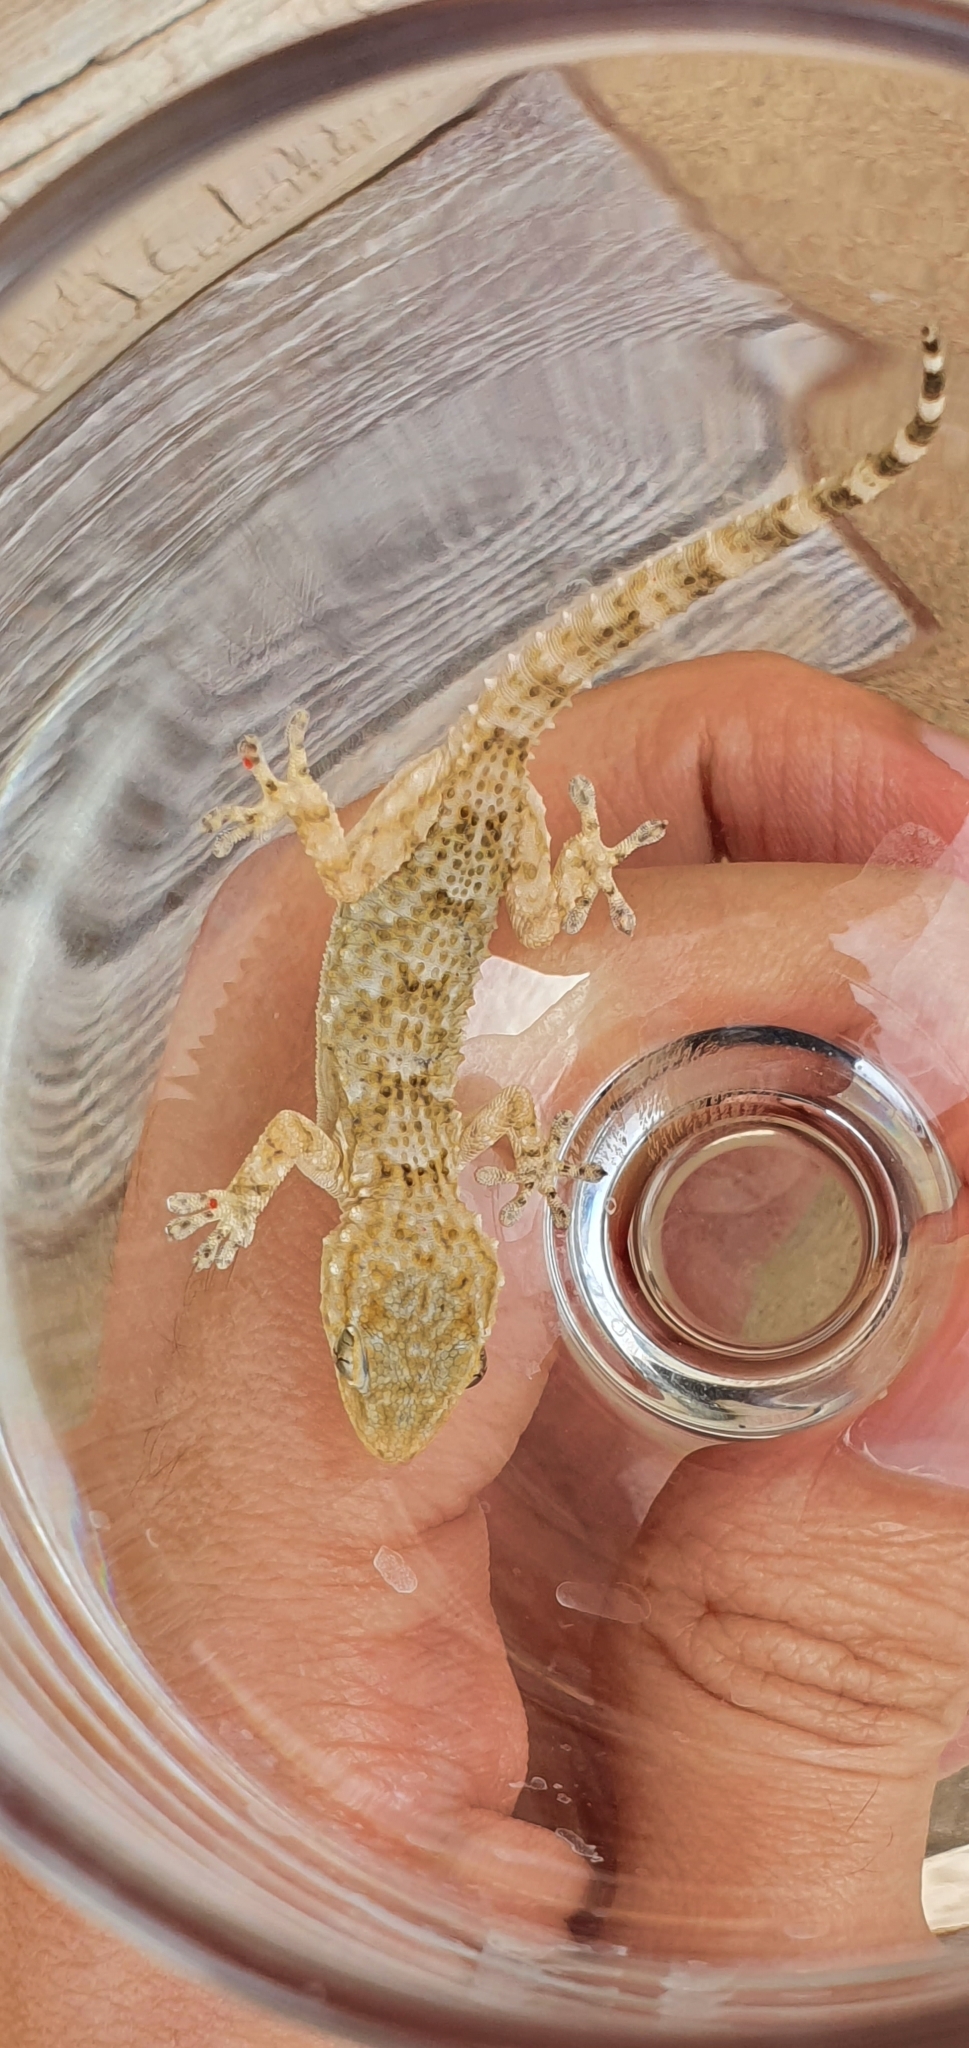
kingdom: Animalia
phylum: Chordata
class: Squamata
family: Phyllodactylidae
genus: Tarentola
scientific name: Tarentola mauritanica
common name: Moorish gecko
